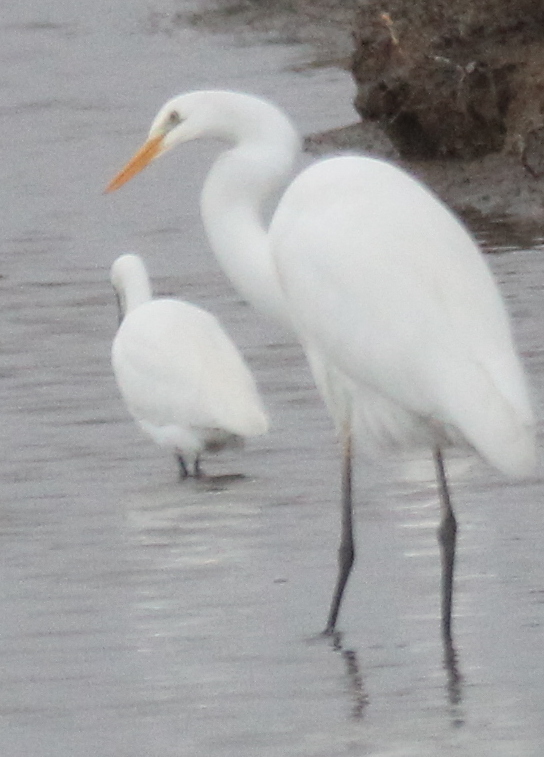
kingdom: Animalia
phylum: Chordata
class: Aves
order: Pelecaniformes
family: Ardeidae
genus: Ardea
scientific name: Ardea alba
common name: Great egret
